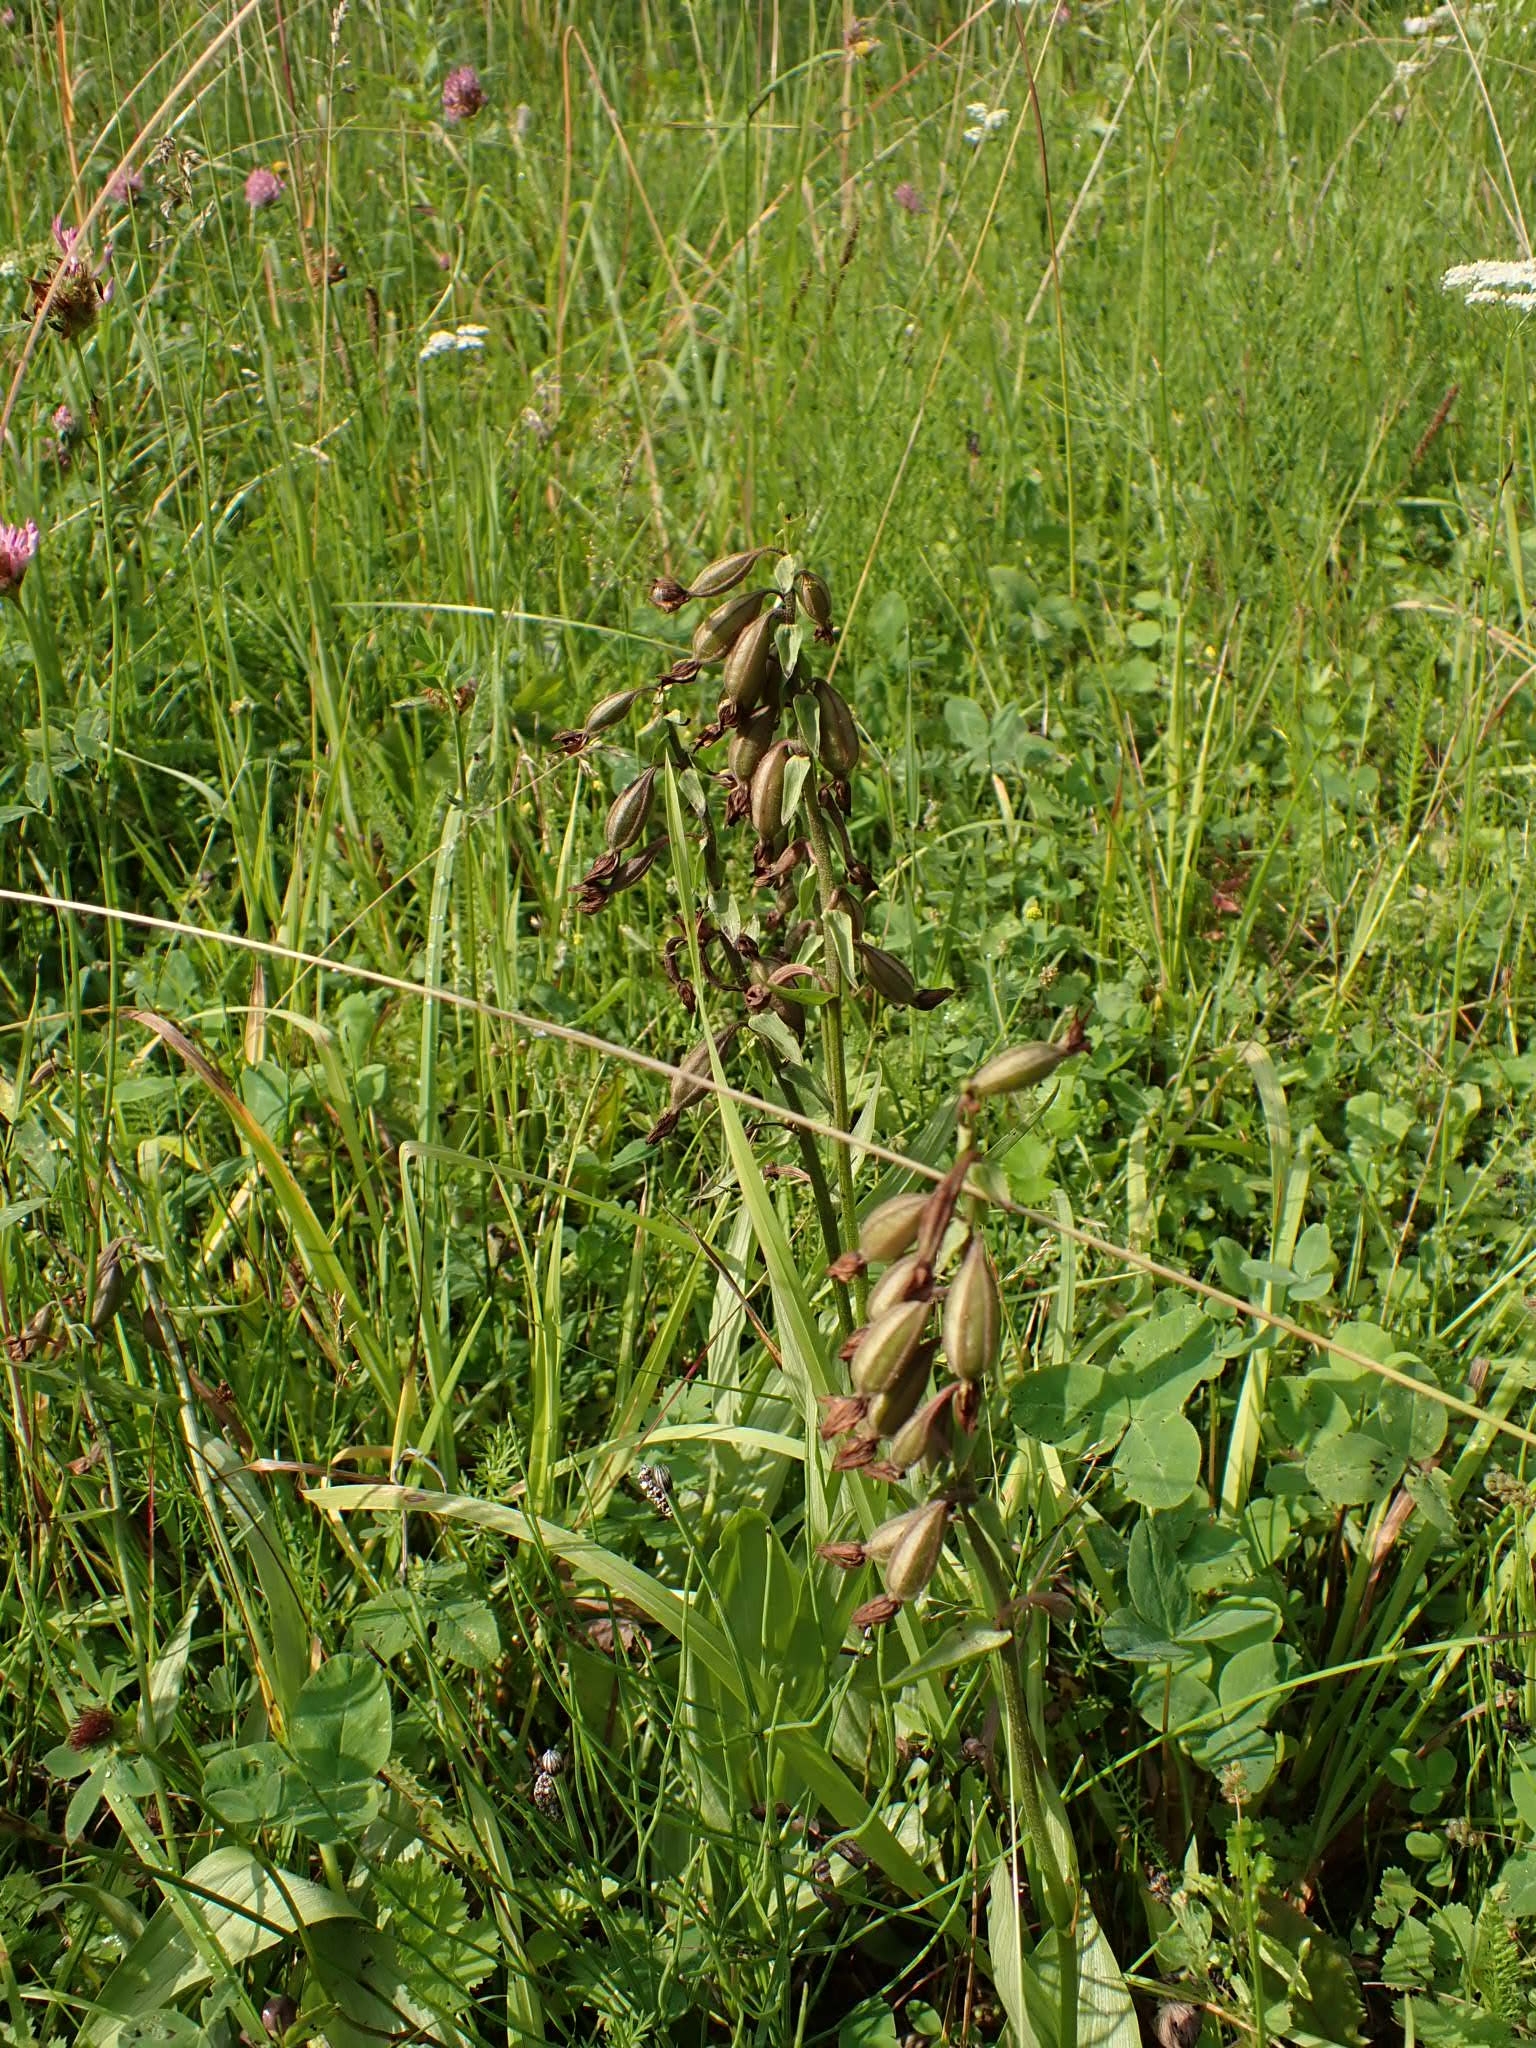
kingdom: Plantae
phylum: Tracheophyta
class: Liliopsida
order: Asparagales
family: Orchidaceae
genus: Epipactis
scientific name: Epipactis palustris
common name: Marsh helleborine
